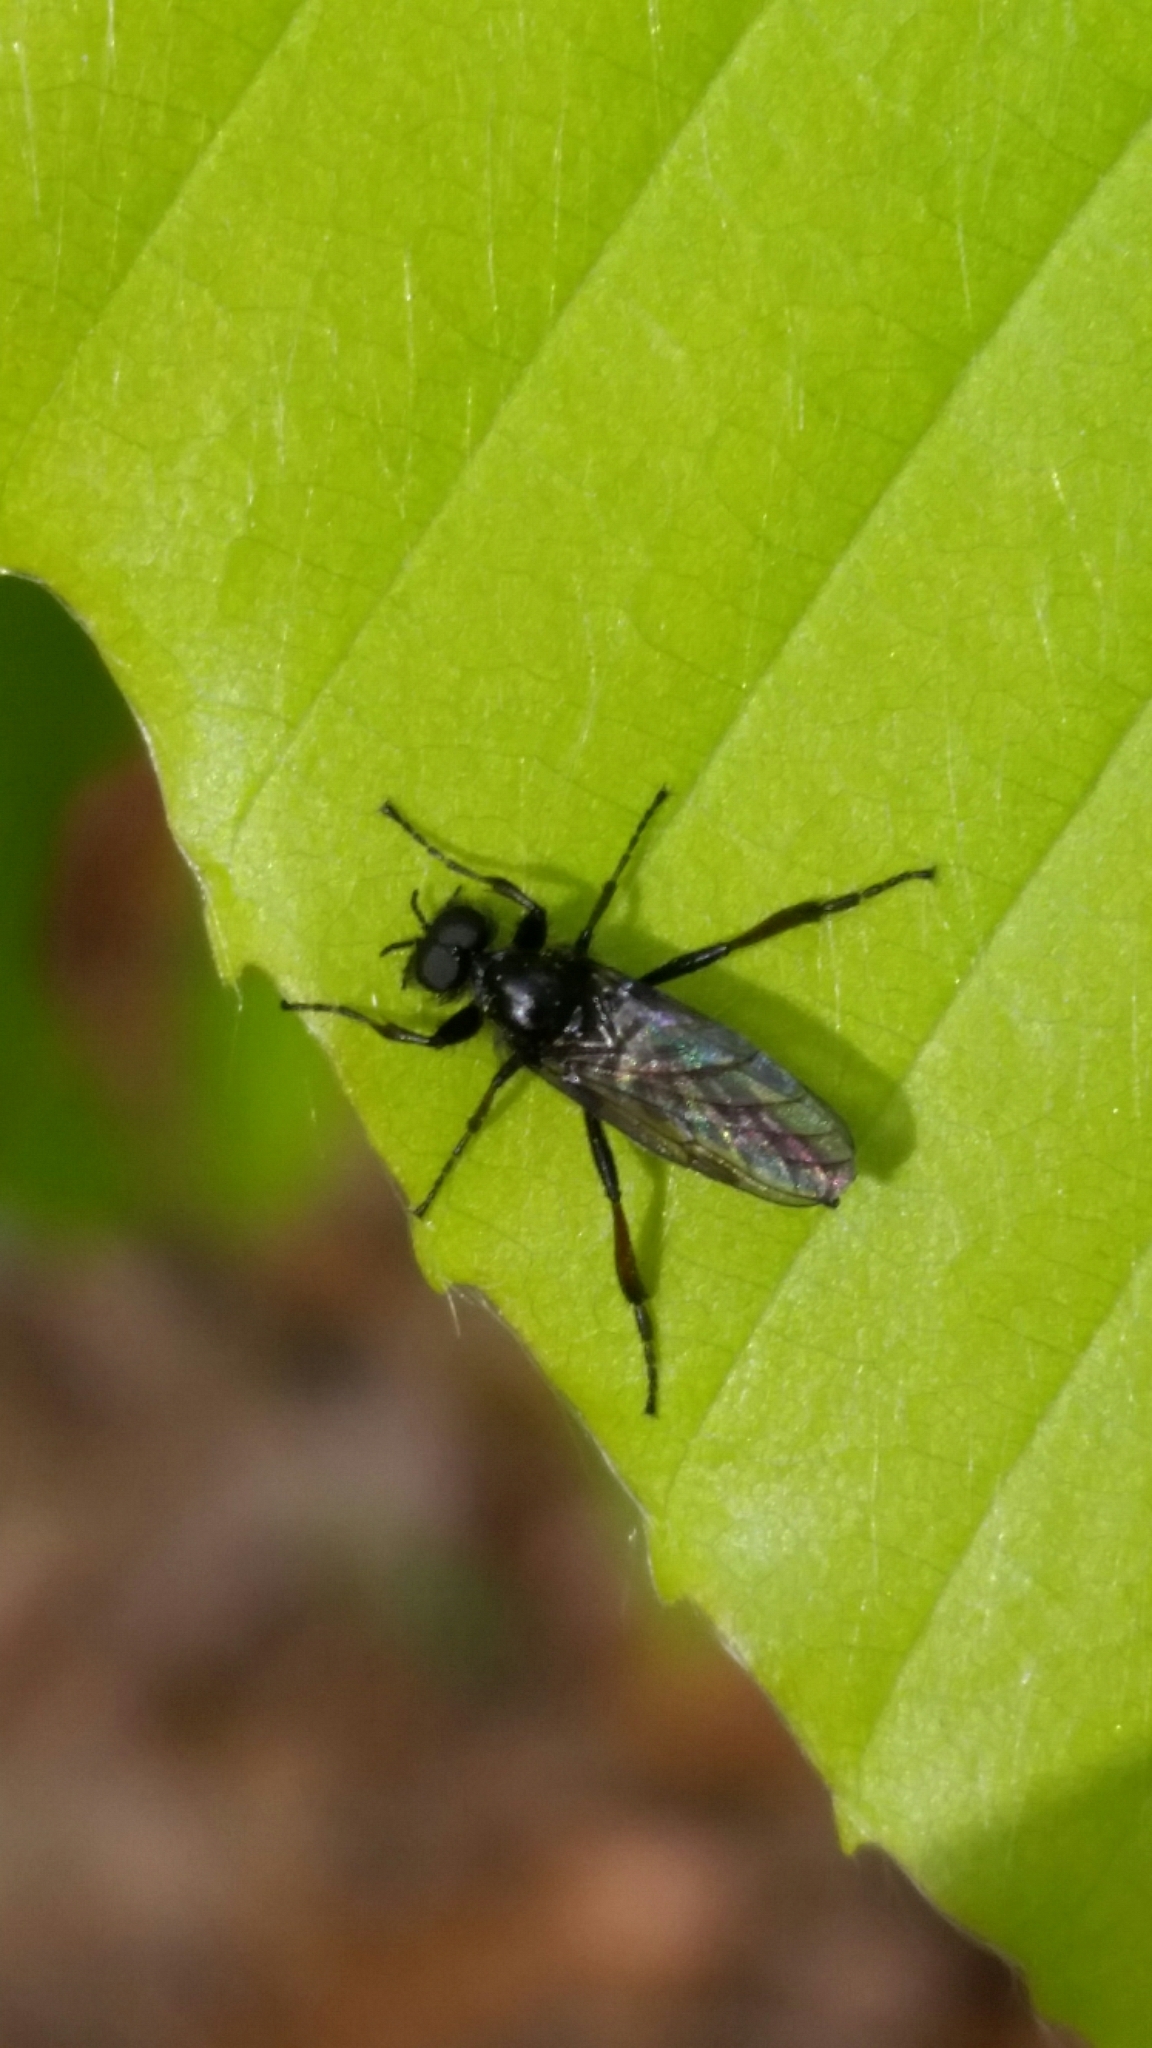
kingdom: Animalia
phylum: Arthropoda
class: Insecta
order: Diptera
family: Bibionidae
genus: Bibio
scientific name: Bibio lanigerus
